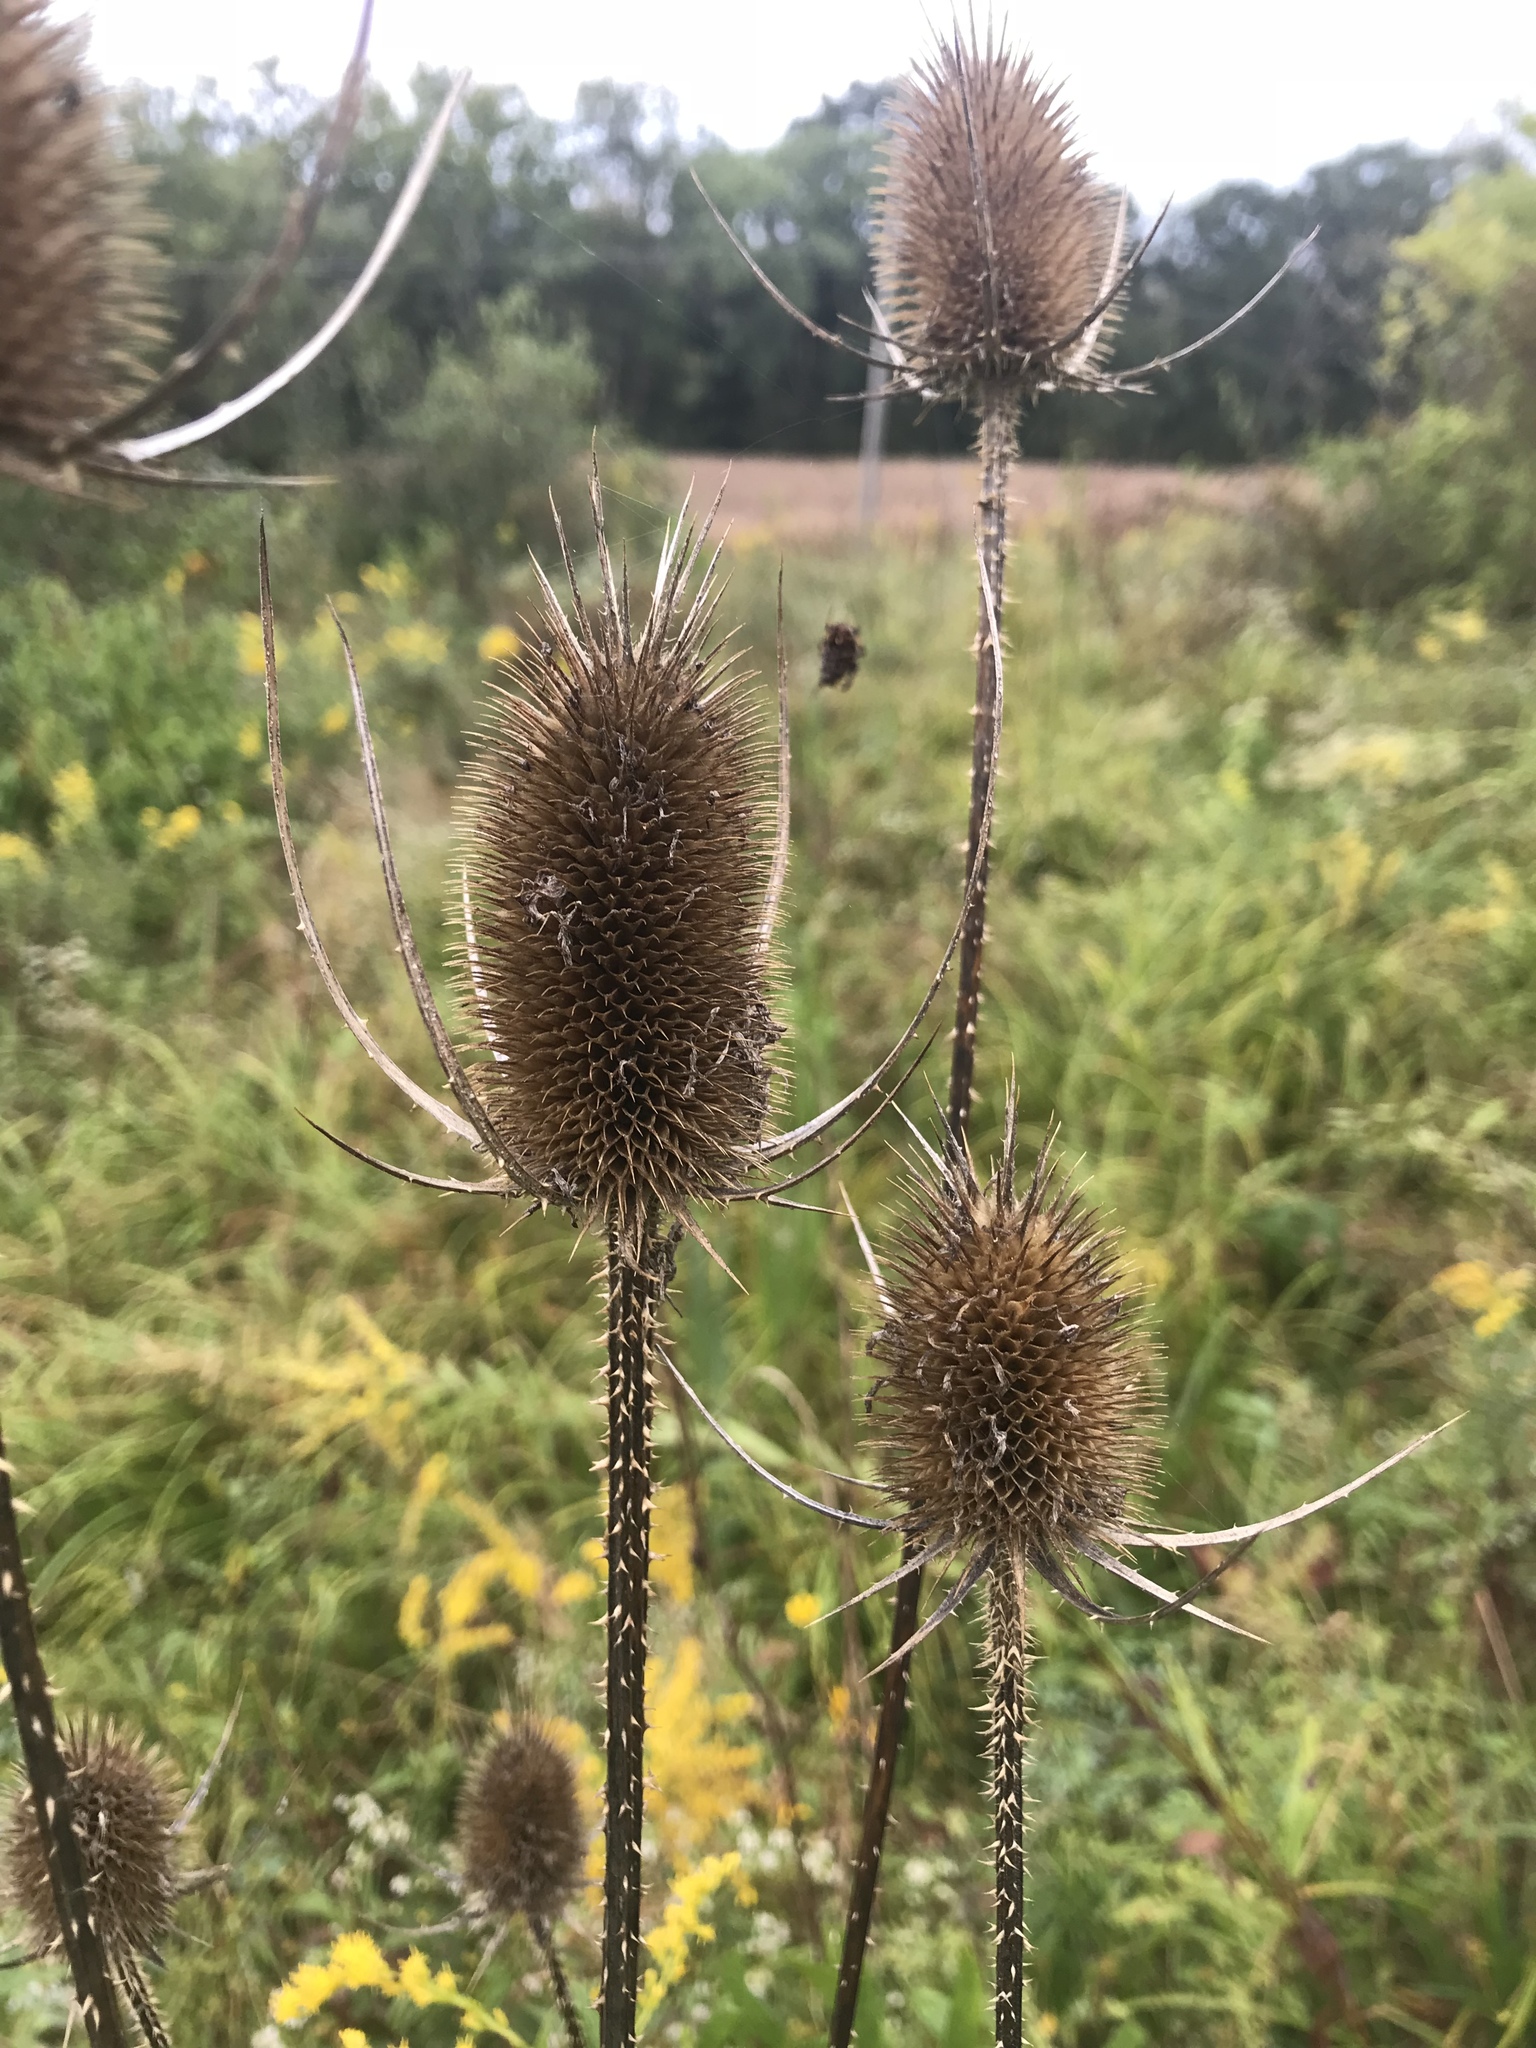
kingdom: Plantae
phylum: Tracheophyta
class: Magnoliopsida
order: Dipsacales
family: Caprifoliaceae
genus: Dipsacus
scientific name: Dipsacus fullonum
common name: Teasel
